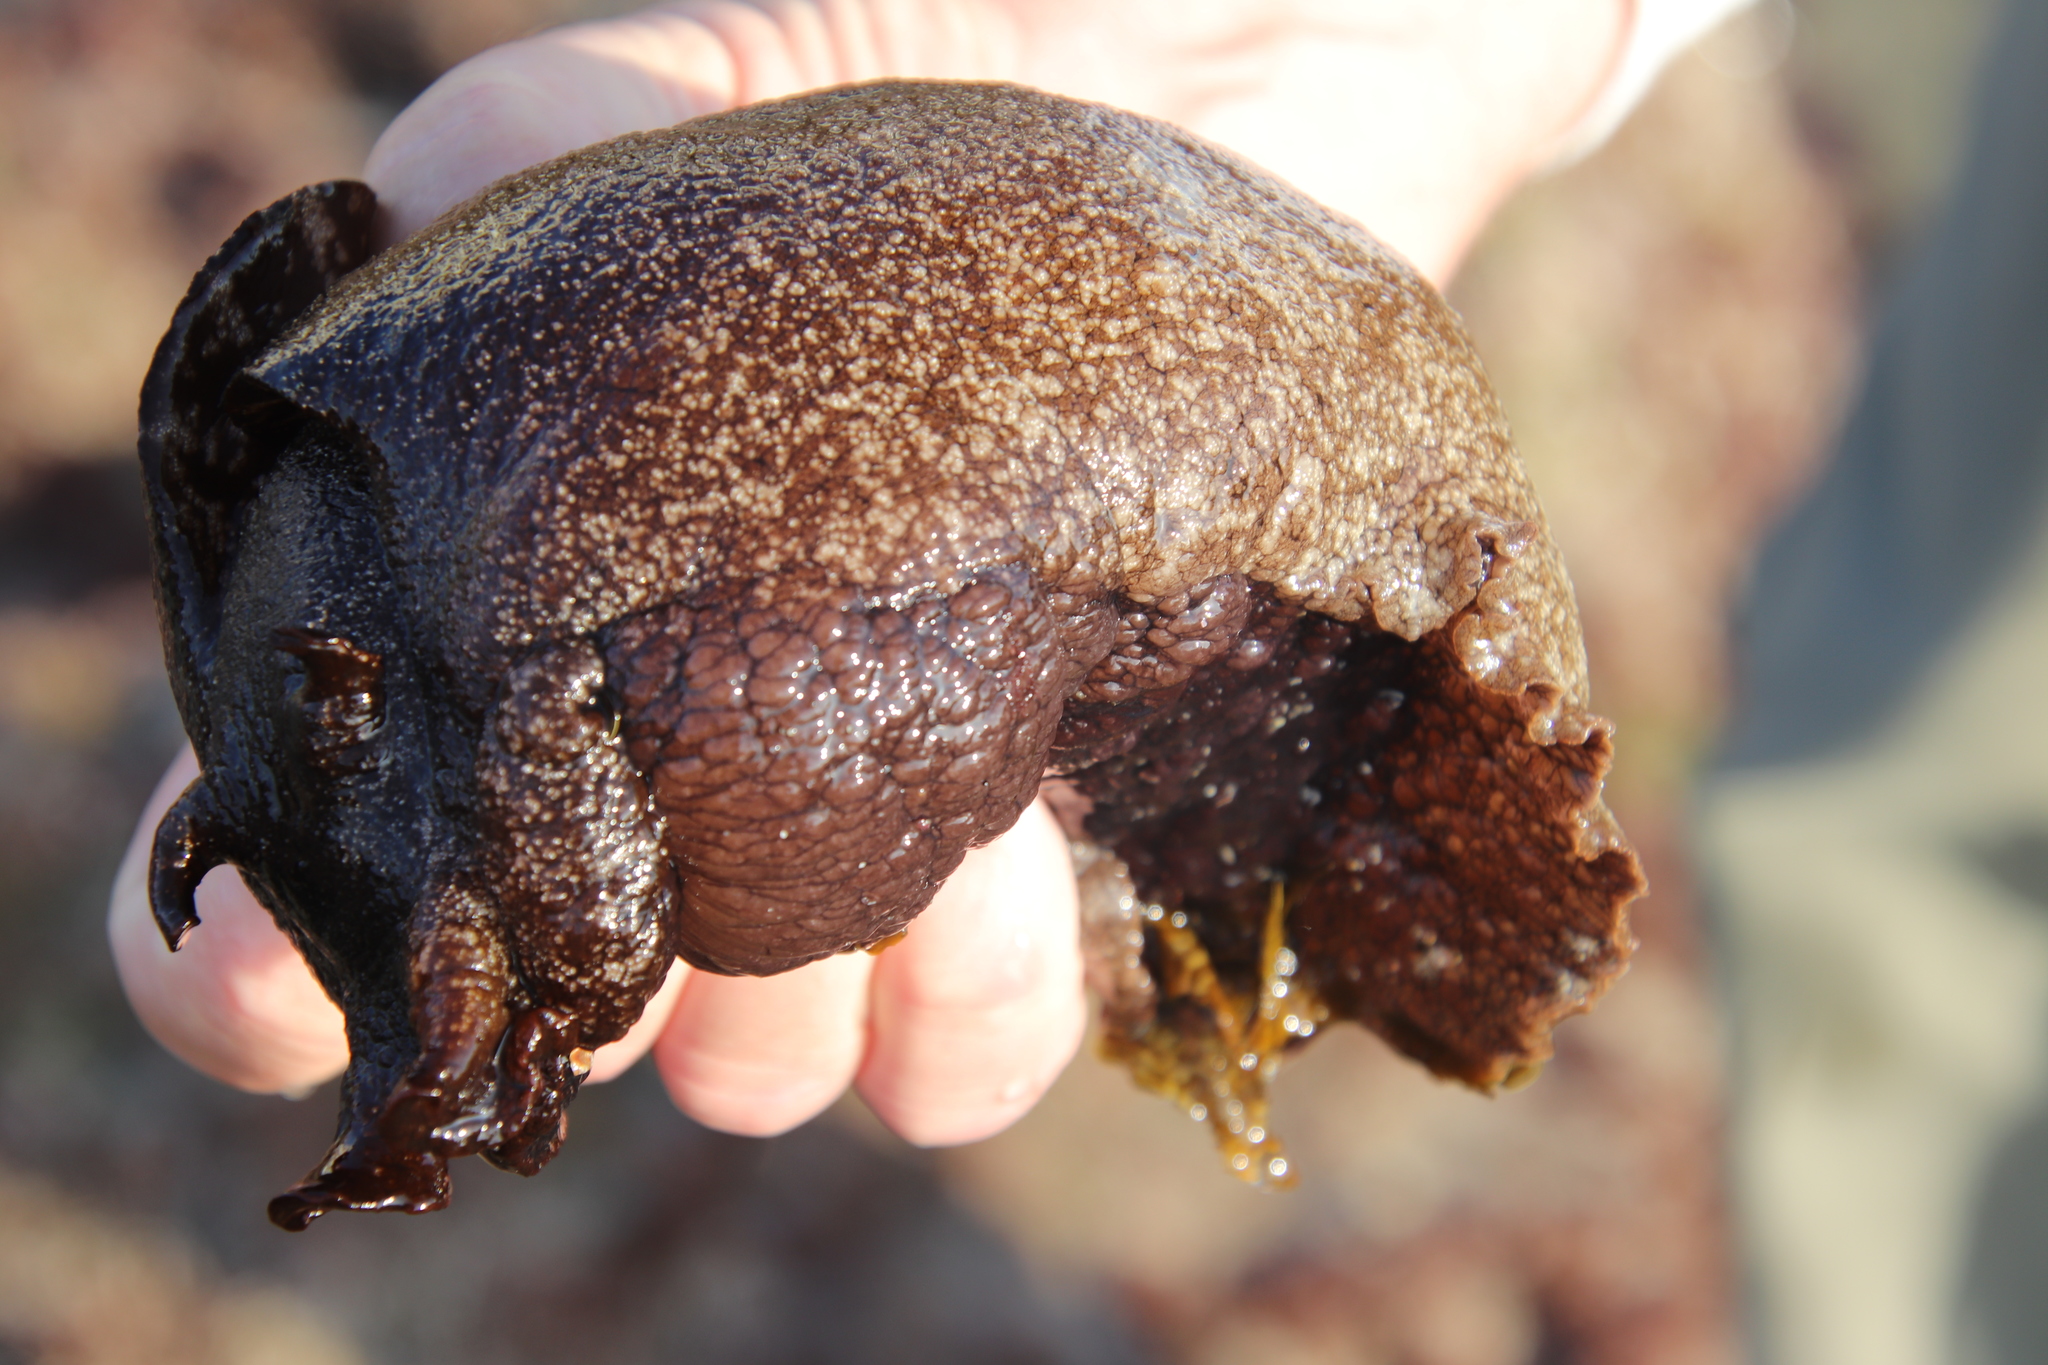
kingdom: Animalia
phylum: Mollusca
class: Gastropoda
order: Aplysiida
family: Aplysiidae
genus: Aplysia
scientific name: Aplysia vaccaria
